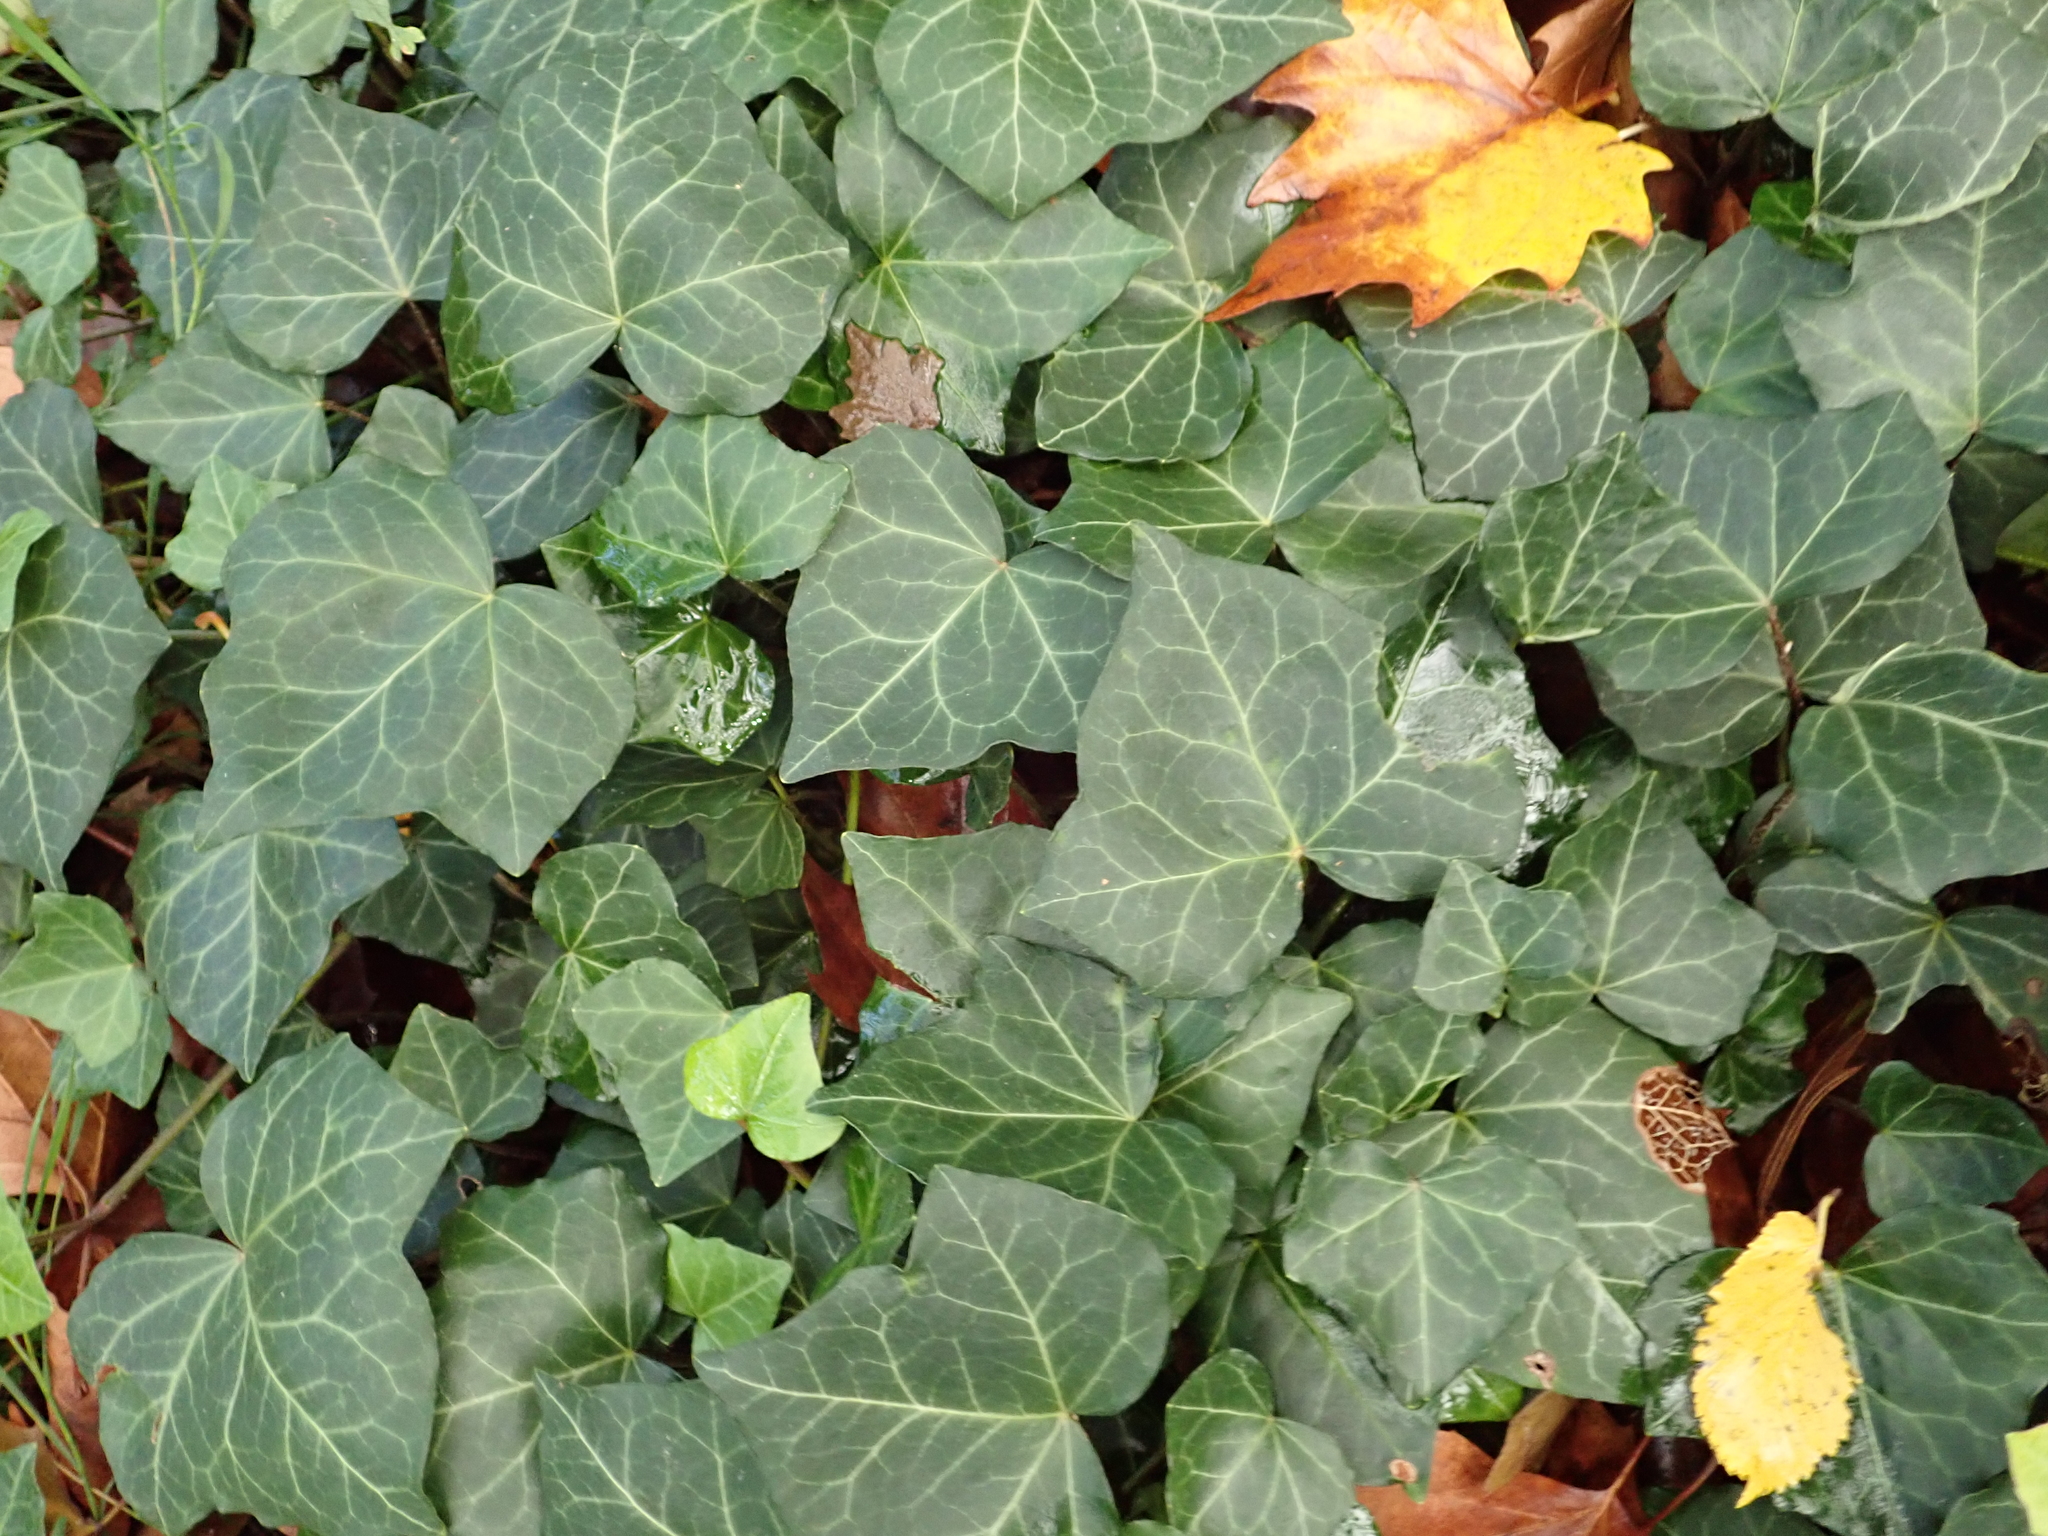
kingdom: Plantae
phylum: Tracheophyta
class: Magnoliopsida
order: Apiales
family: Araliaceae
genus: Hedera
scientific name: Hedera helix
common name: Ivy
